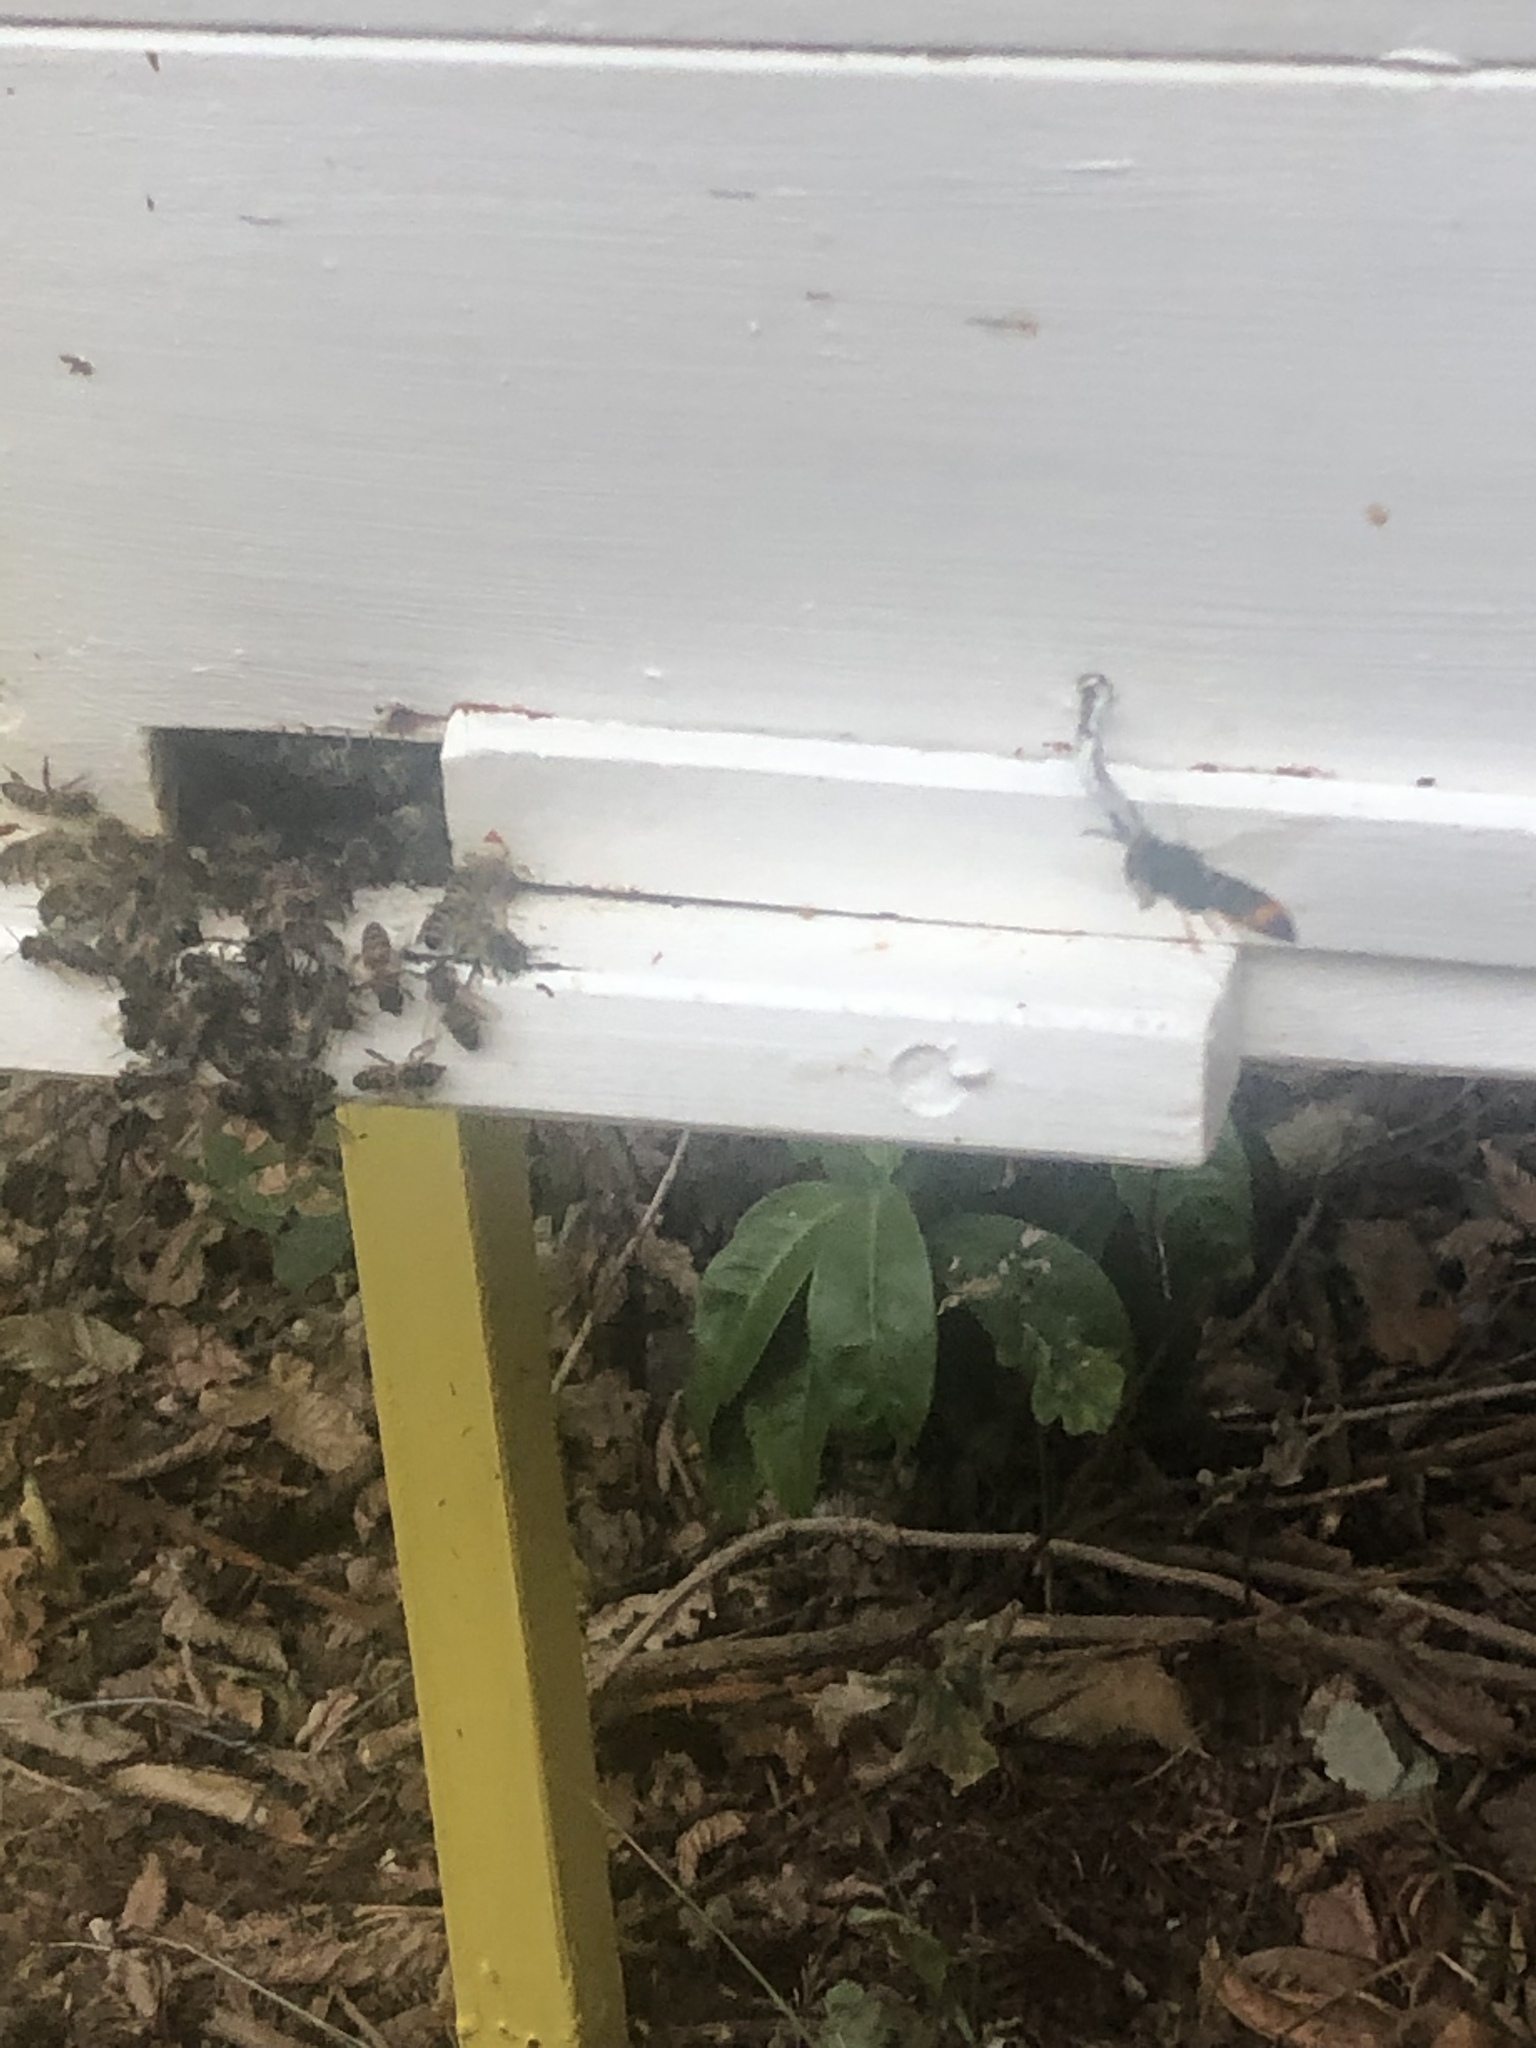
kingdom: Animalia
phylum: Arthropoda
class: Insecta
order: Hymenoptera
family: Vespidae
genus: Vespa
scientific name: Vespa velutina
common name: Asian hornet
